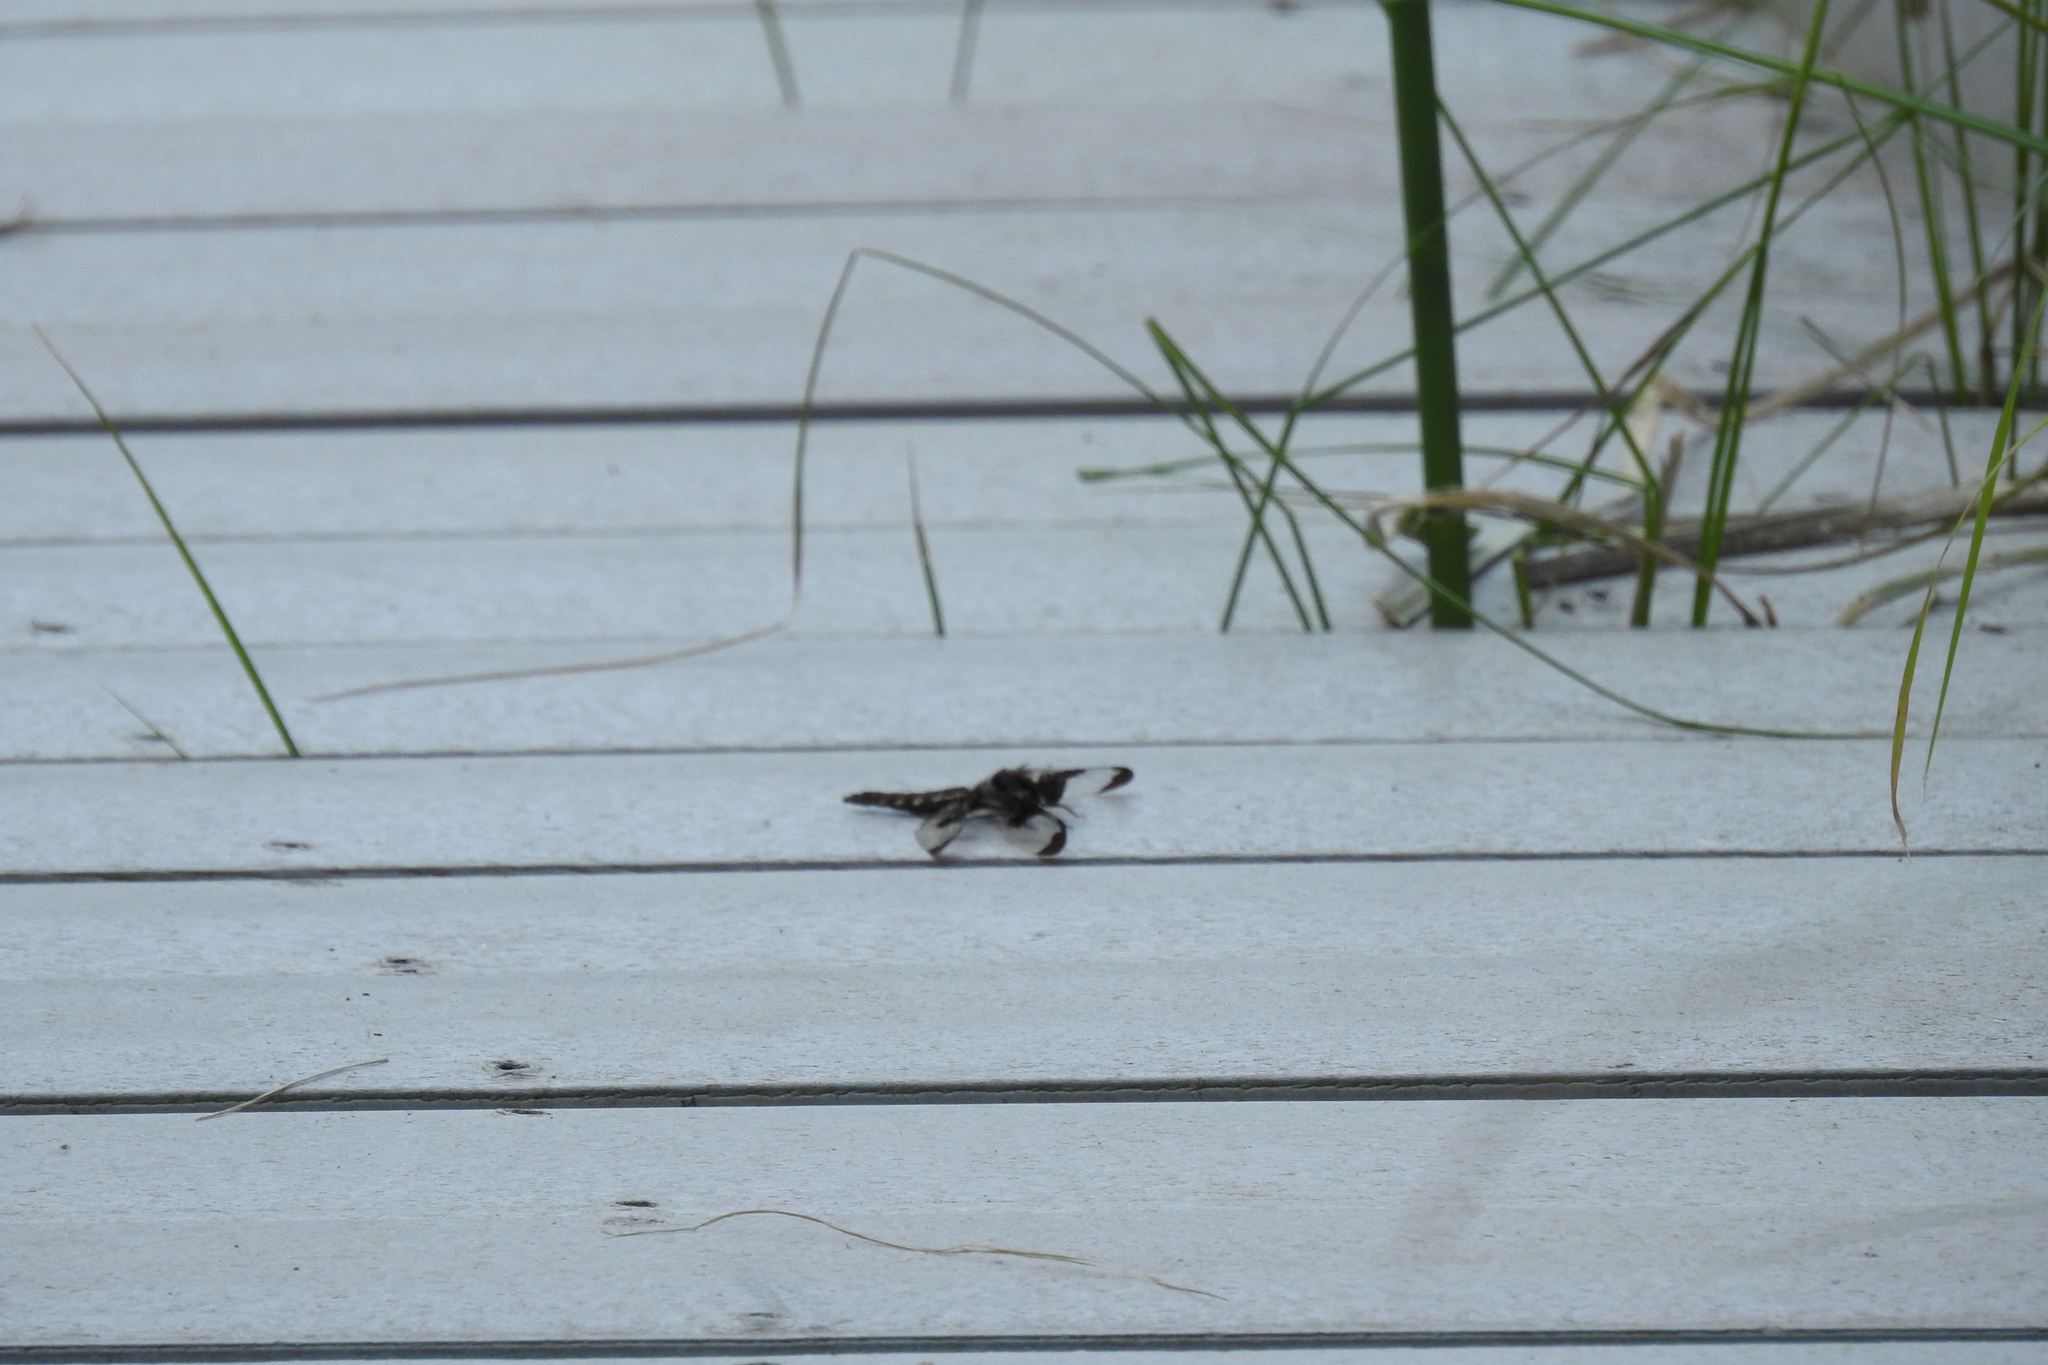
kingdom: Animalia
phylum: Arthropoda
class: Insecta
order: Odonata
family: Libellulidae
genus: Plathemis
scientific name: Plathemis lydia
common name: Common whitetail
